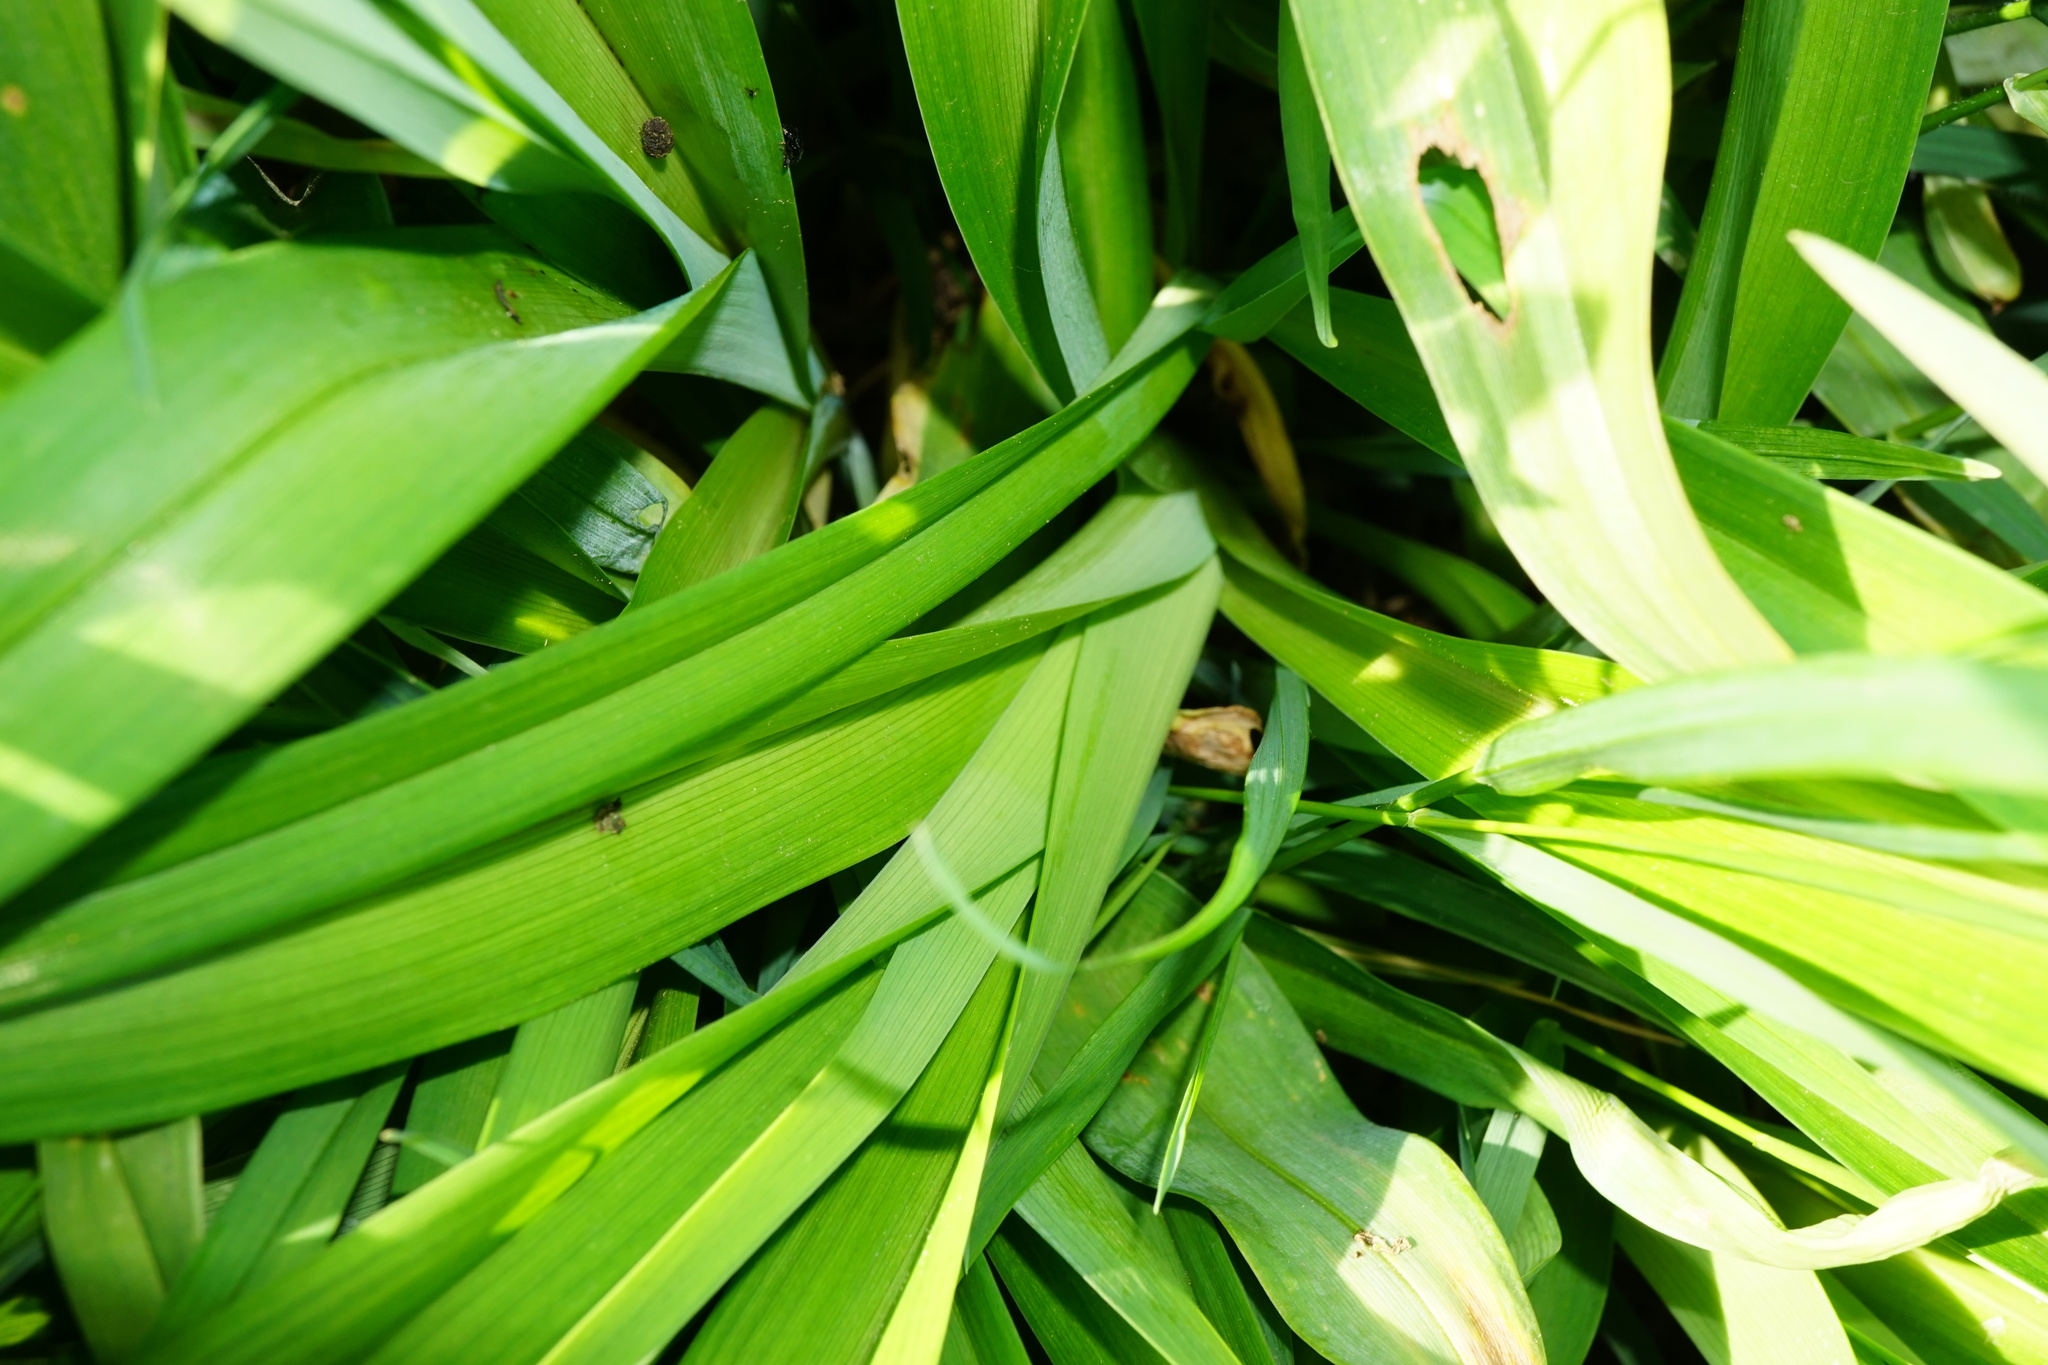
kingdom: Plantae
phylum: Tracheophyta
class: Liliopsida
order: Asparagales
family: Asphodelaceae
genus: Hemerocallis
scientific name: Hemerocallis fulva
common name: Orange day-lily
